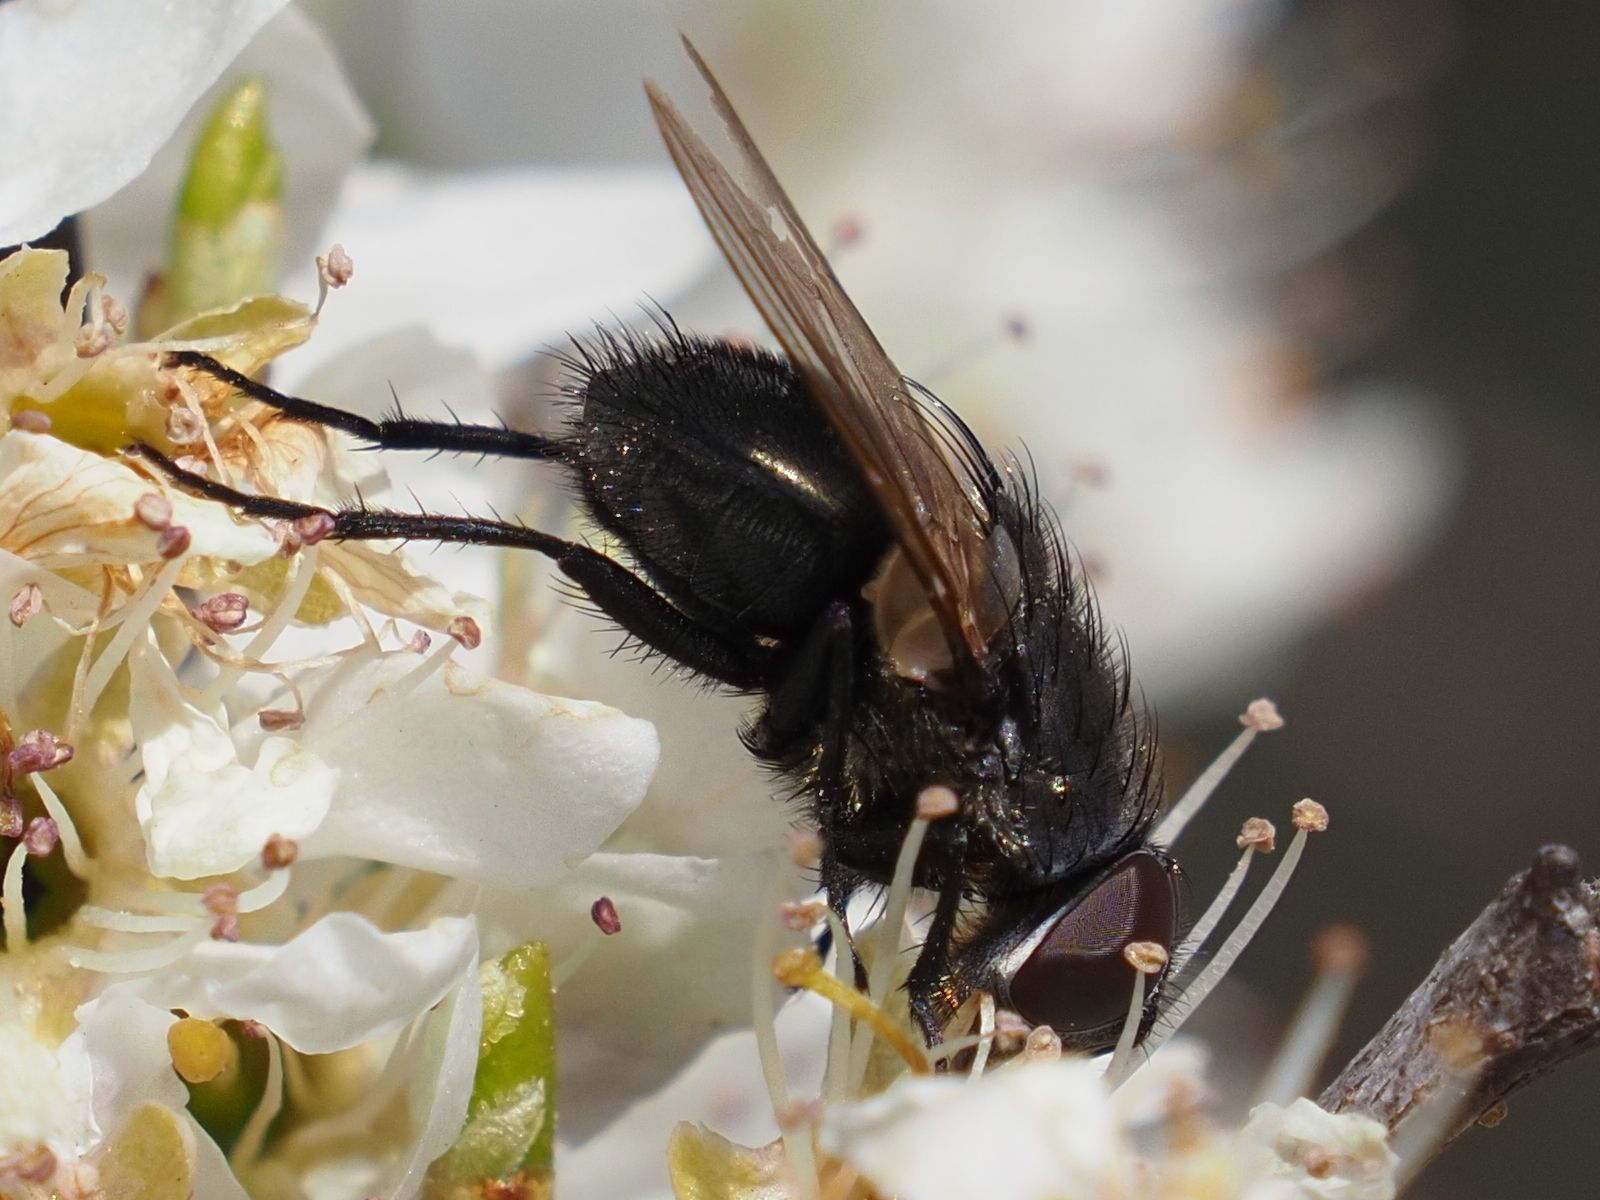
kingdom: Animalia
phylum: Arthropoda
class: Insecta
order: Diptera
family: Polleniidae
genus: Pollenia
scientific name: Pollenia amentaria
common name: Black-bellied clusterfly
